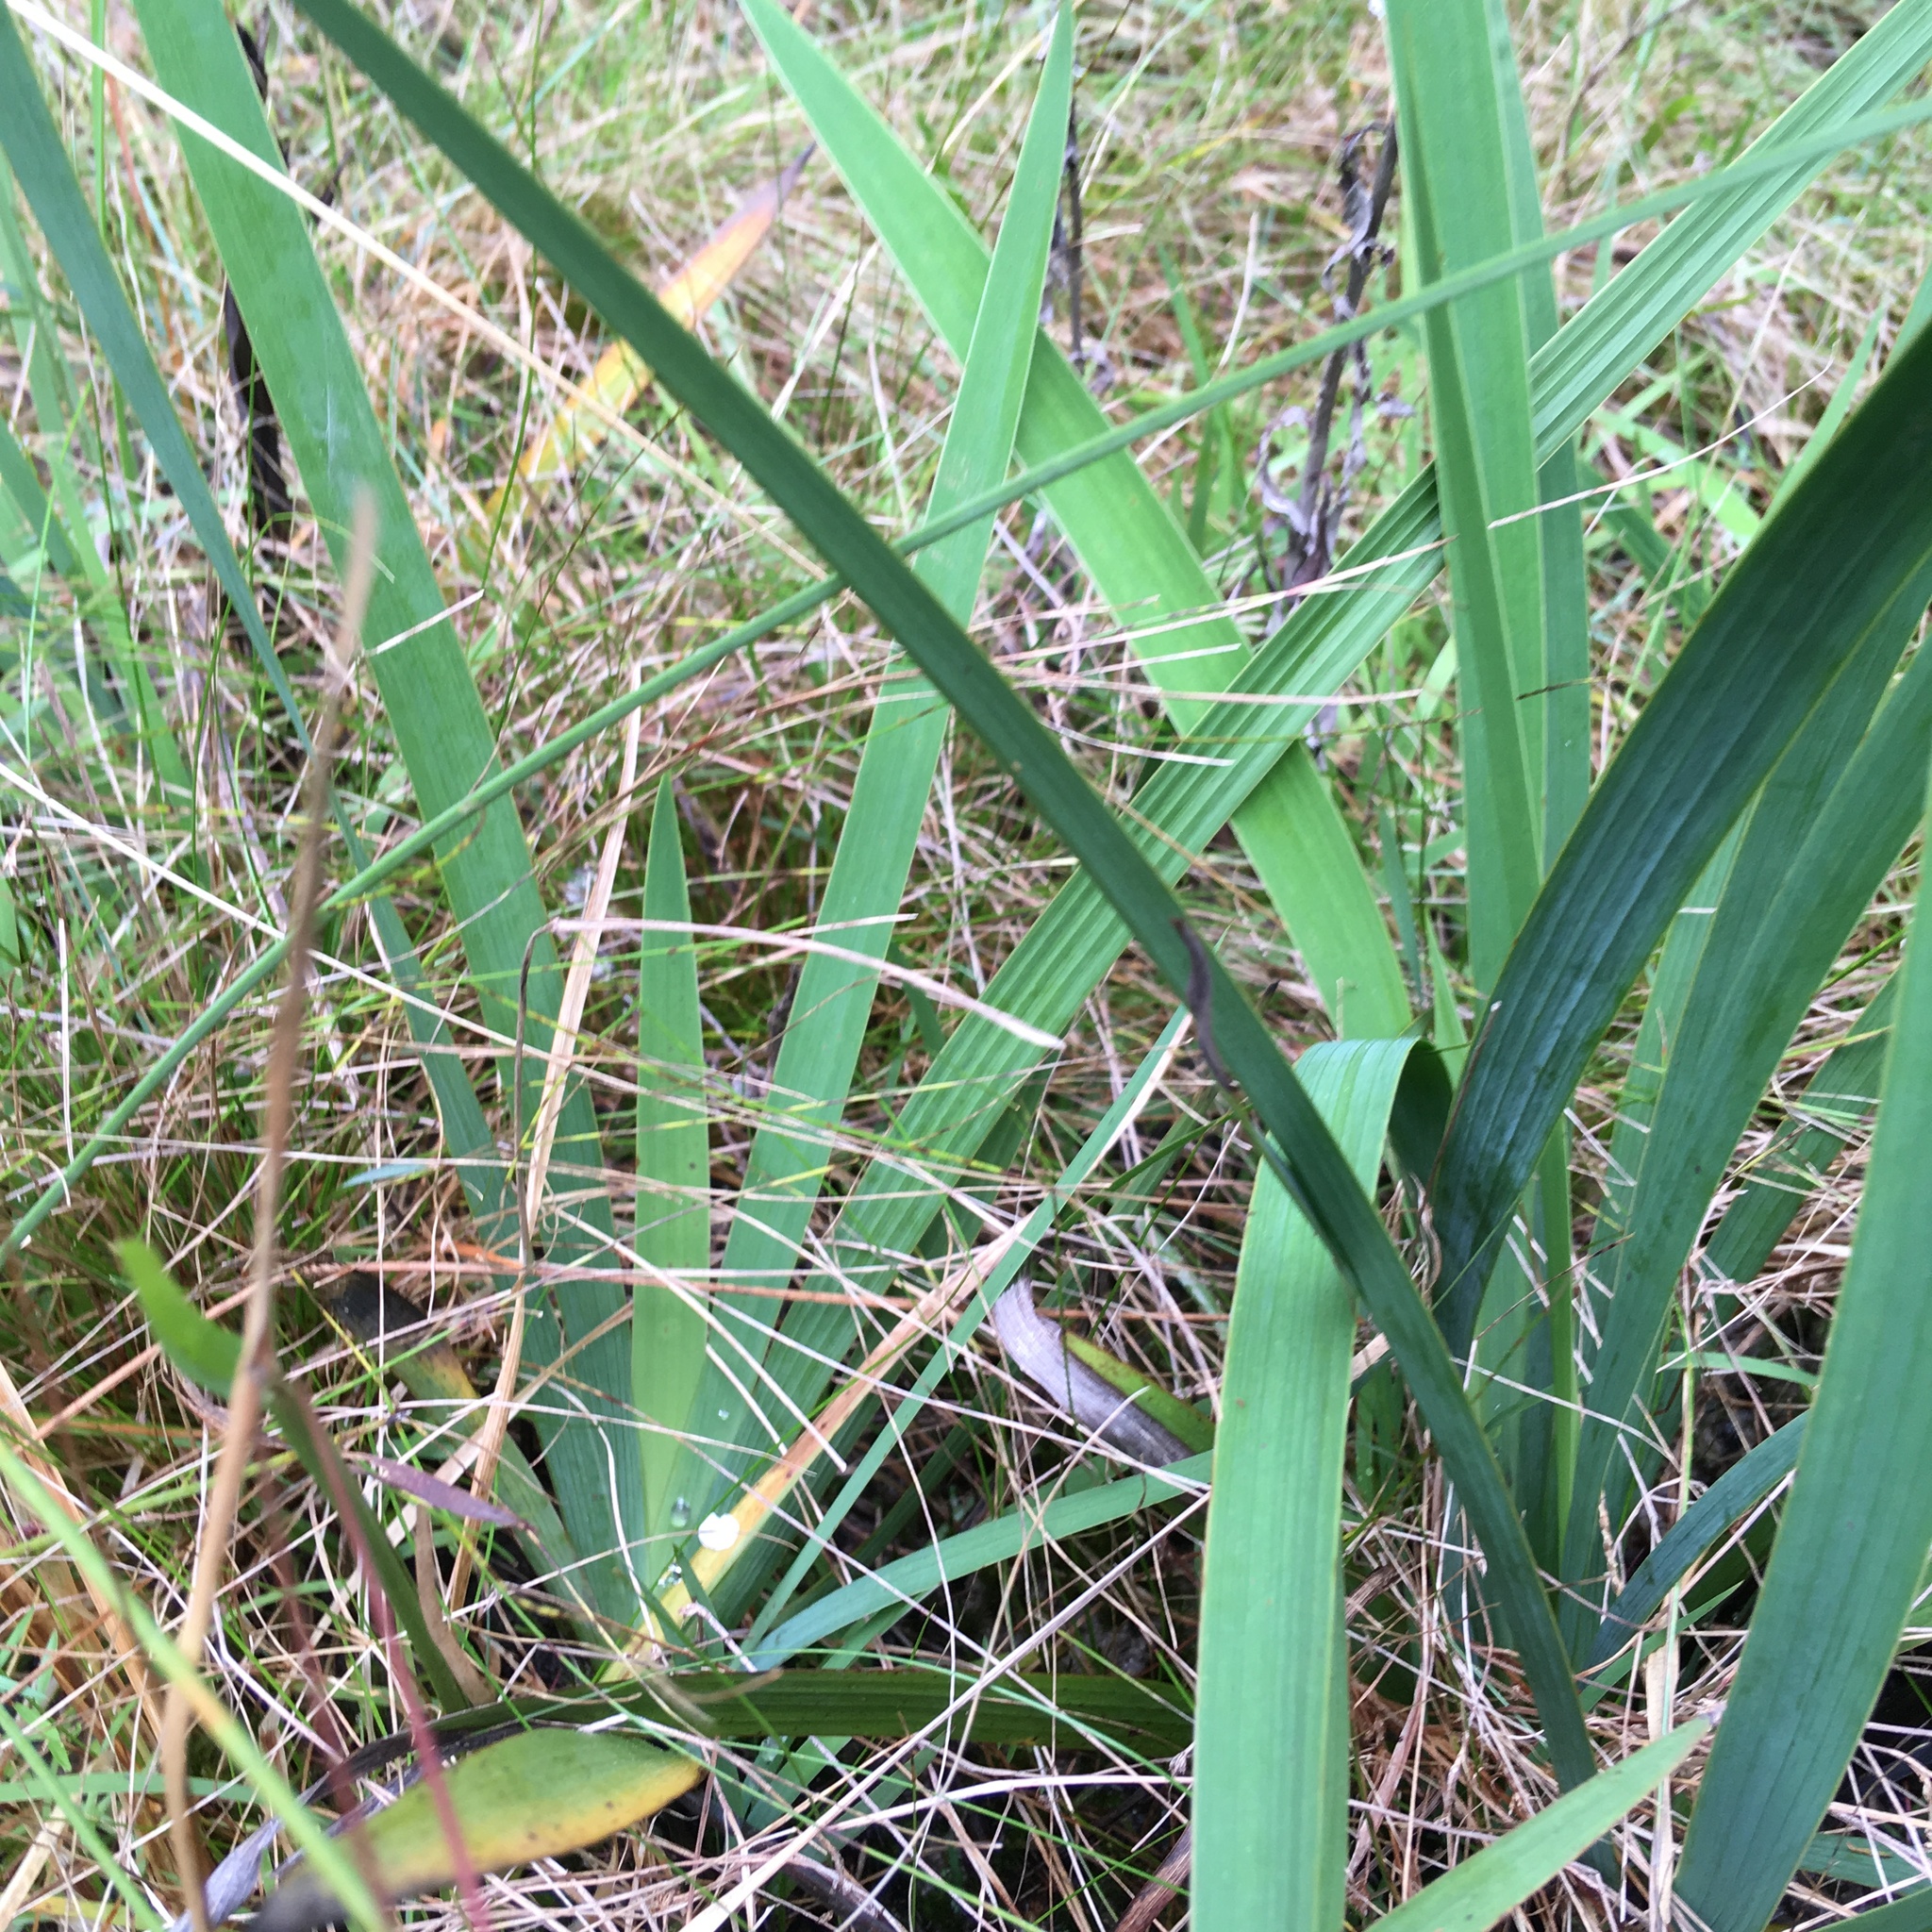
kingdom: Plantae
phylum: Tracheophyta
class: Liliopsida
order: Asparagales
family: Iridaceae
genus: Aristea
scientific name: Aristea ecklonii
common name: Blue corn-lily
